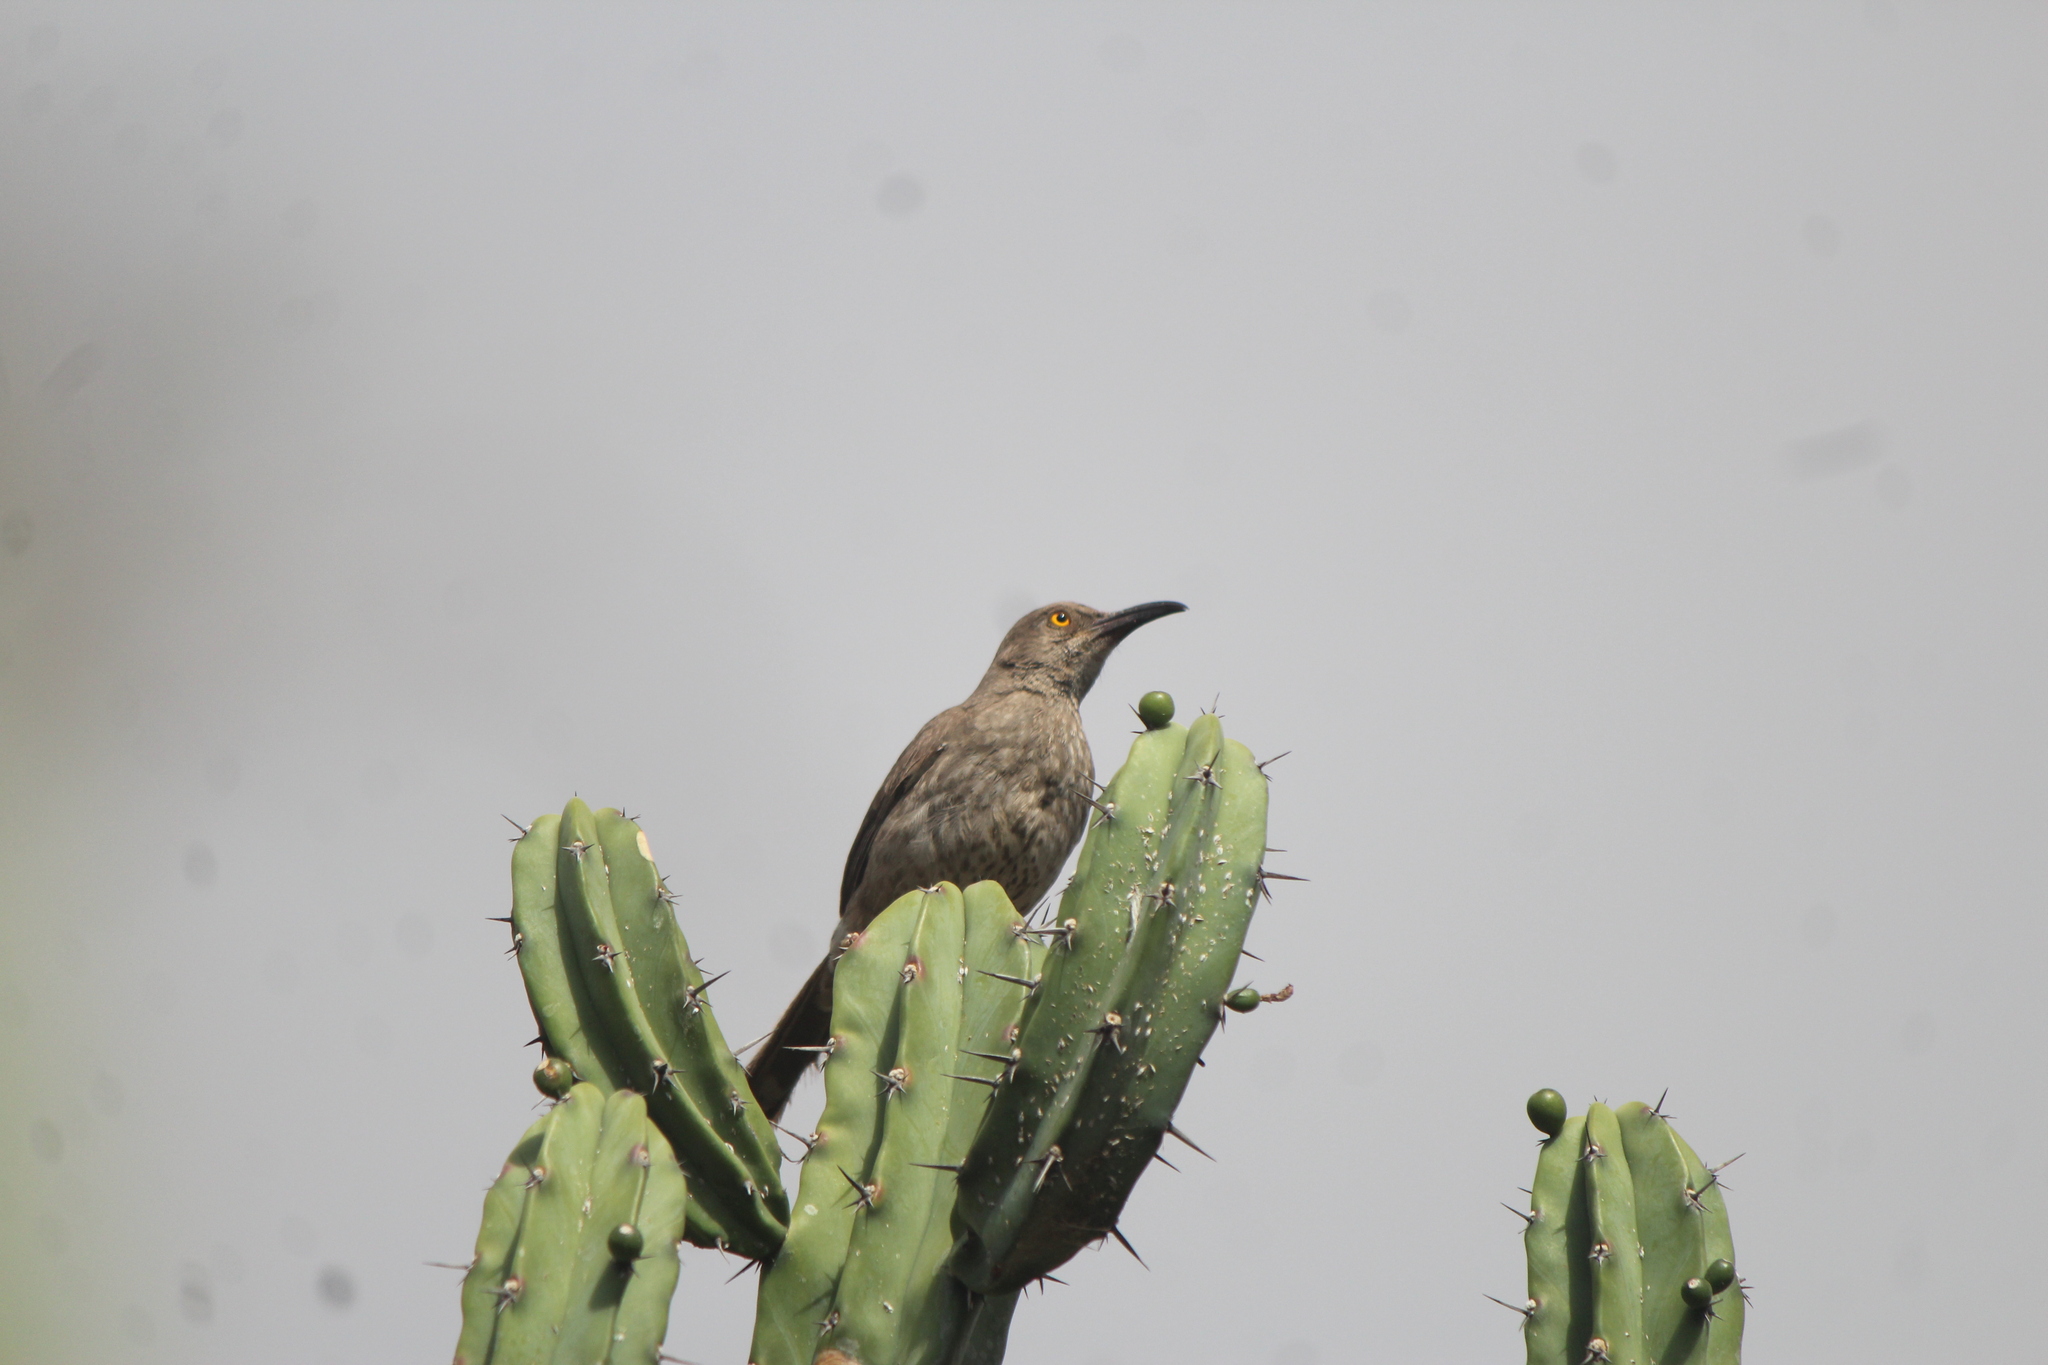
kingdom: Animalia
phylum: Chordata
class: Aves
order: Passeriformes
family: Mimidae
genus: Toxostoma
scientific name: Toxostoma curvirostre
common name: Curve-billed thrasher
